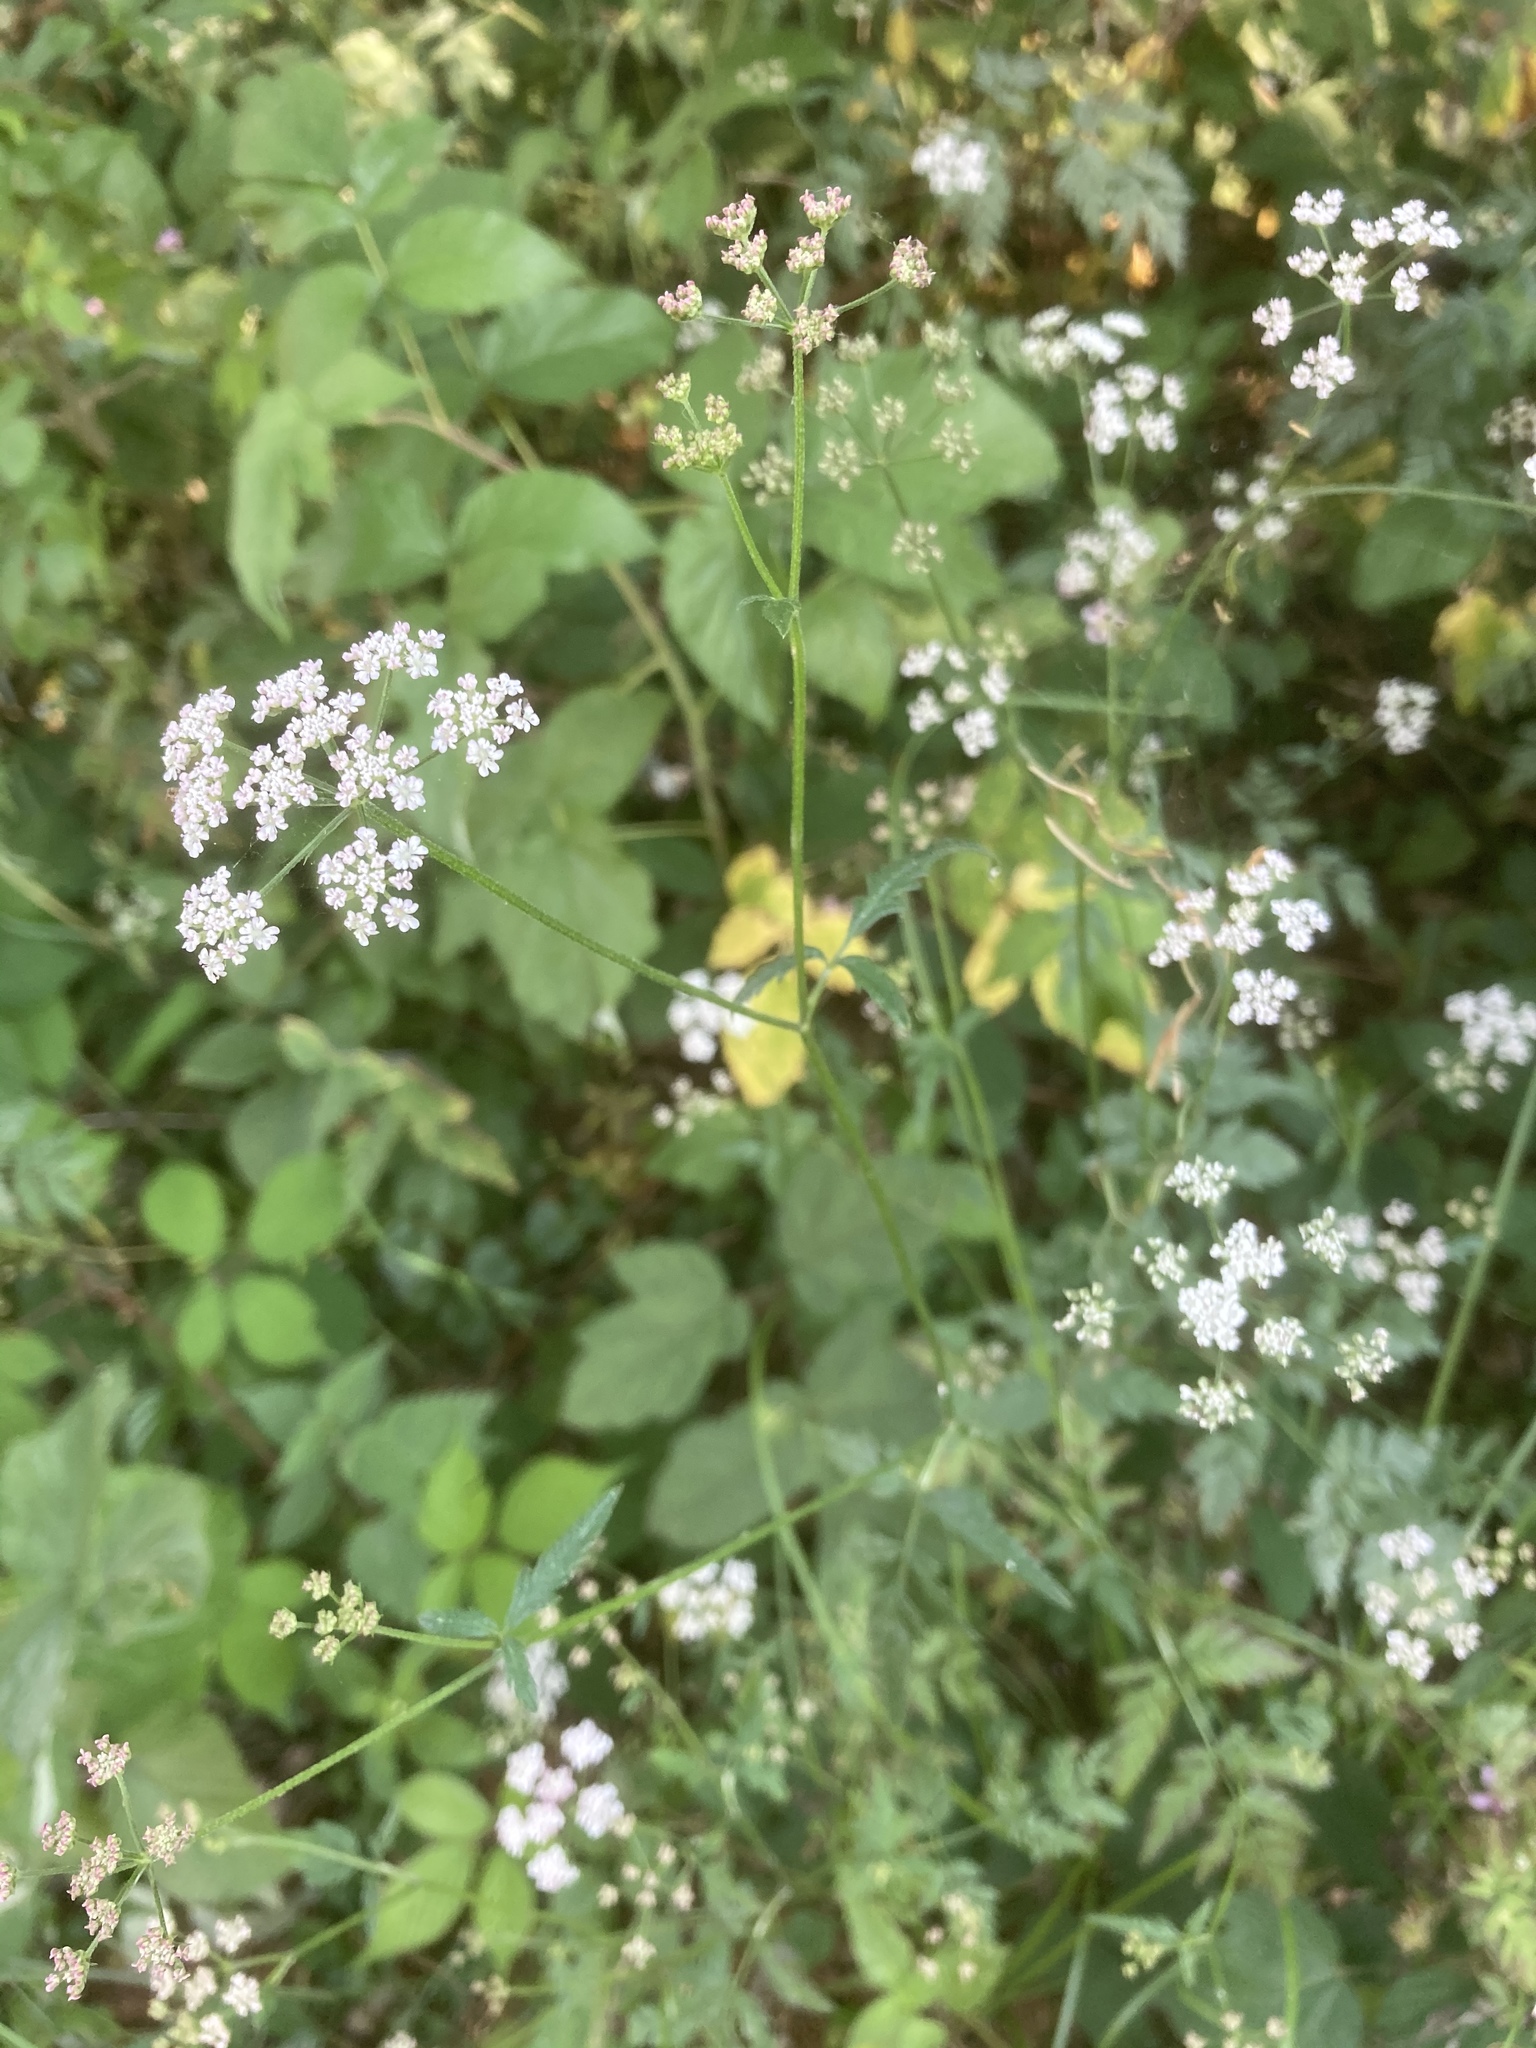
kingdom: Plantae
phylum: Tracheophyta
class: Magnoliopsida
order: Apiales
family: Apiaceae
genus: Torilis
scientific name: Torilis japonica
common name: Upright hedge-parsley
